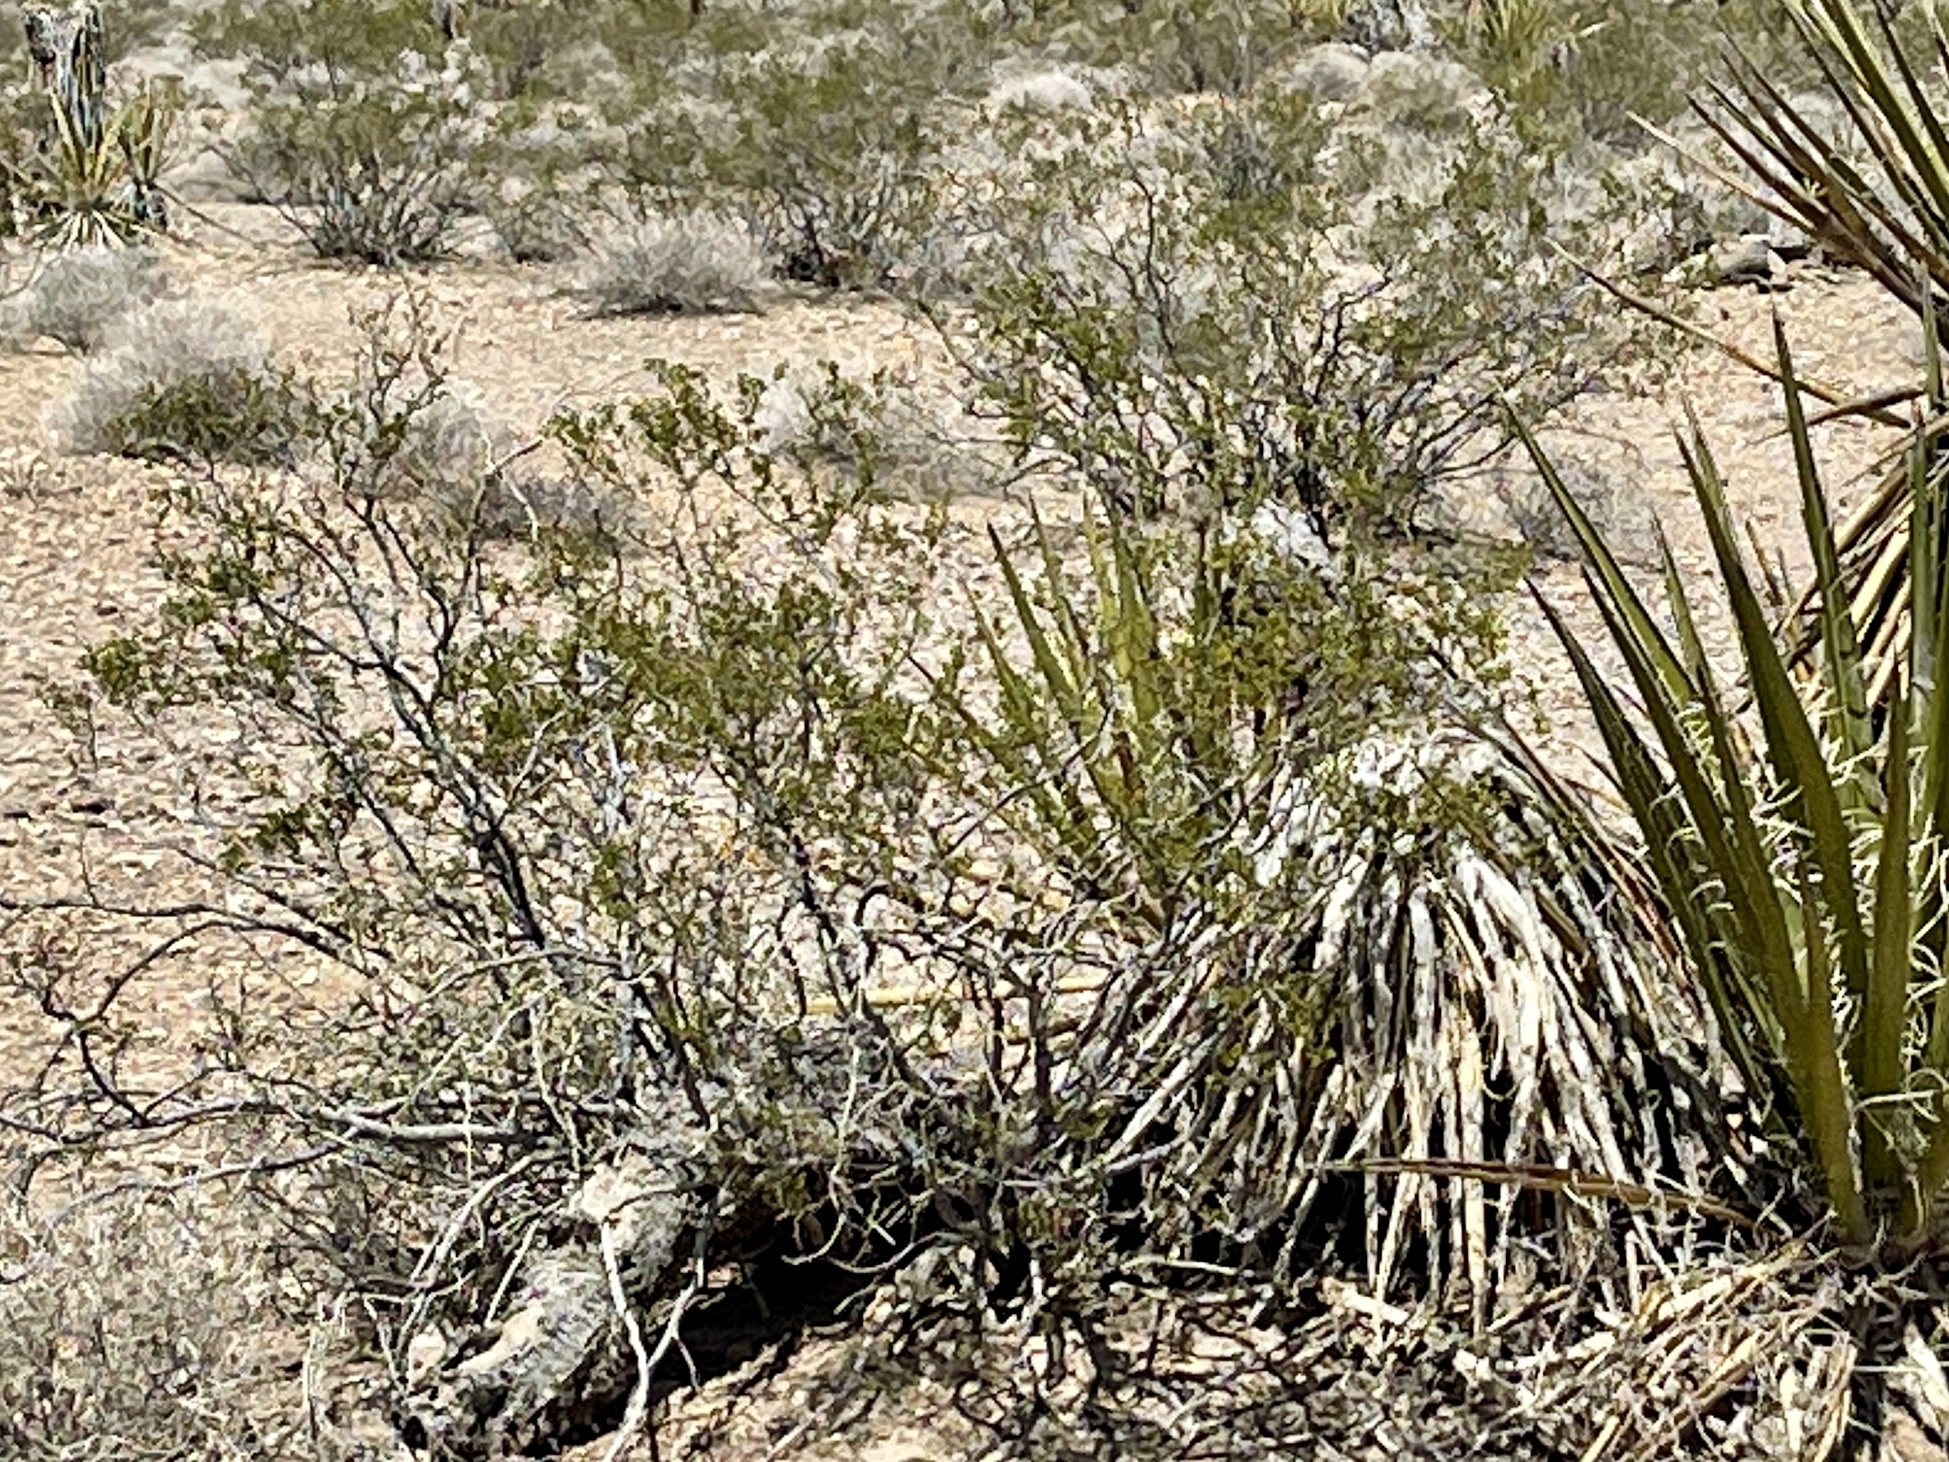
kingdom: Plantae
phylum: Tracheophyta
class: Magnoliopsida
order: Zygophyllales
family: Zygophyllaceae
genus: Larrea
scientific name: Larrea tridentata
